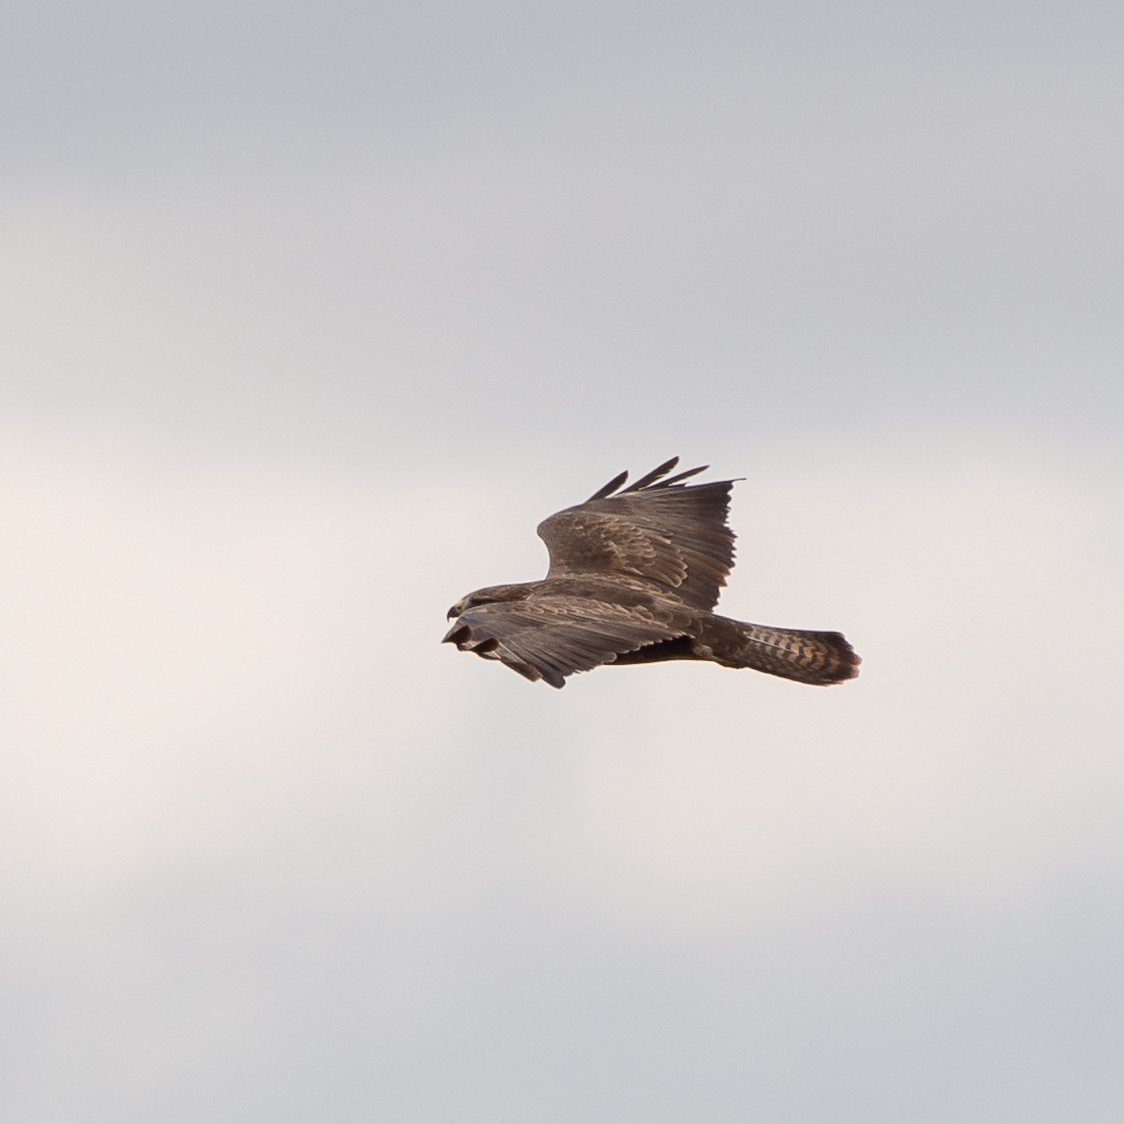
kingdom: Animalia
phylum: Chordata
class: Aves
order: Accipitriformes
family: Accipitridae
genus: Buteo
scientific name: Buteo buteo
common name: Common buzzard
